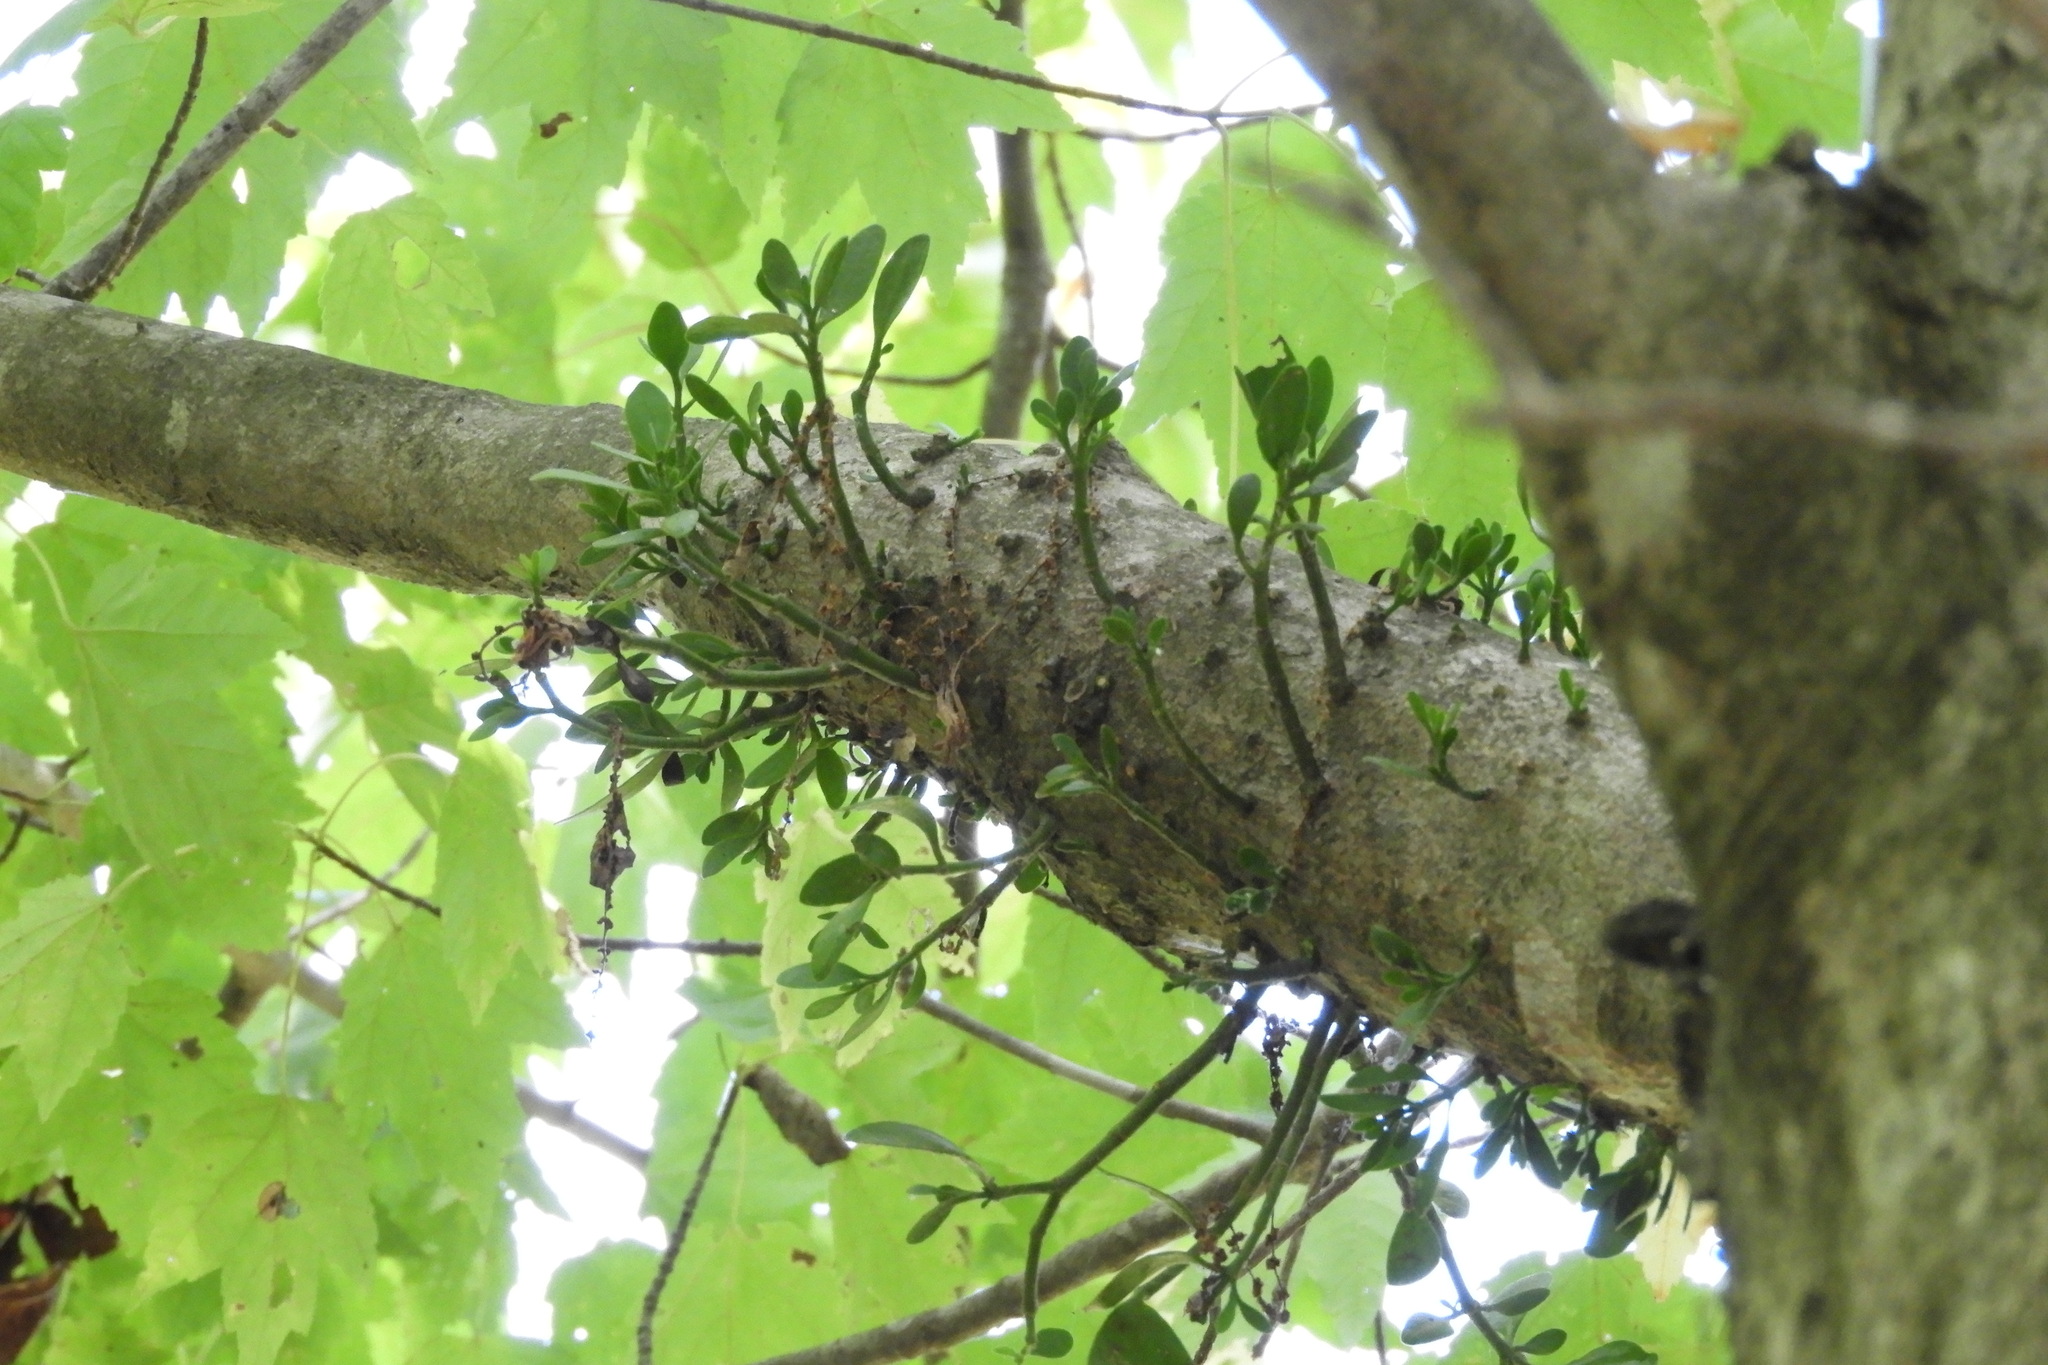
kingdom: Plantae
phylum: Tracheophyta
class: Magnoliopsida
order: Santalales
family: Viscaceae
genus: Phoradendron
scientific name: Phoradendron leucarpum
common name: Pacific mistletoe
